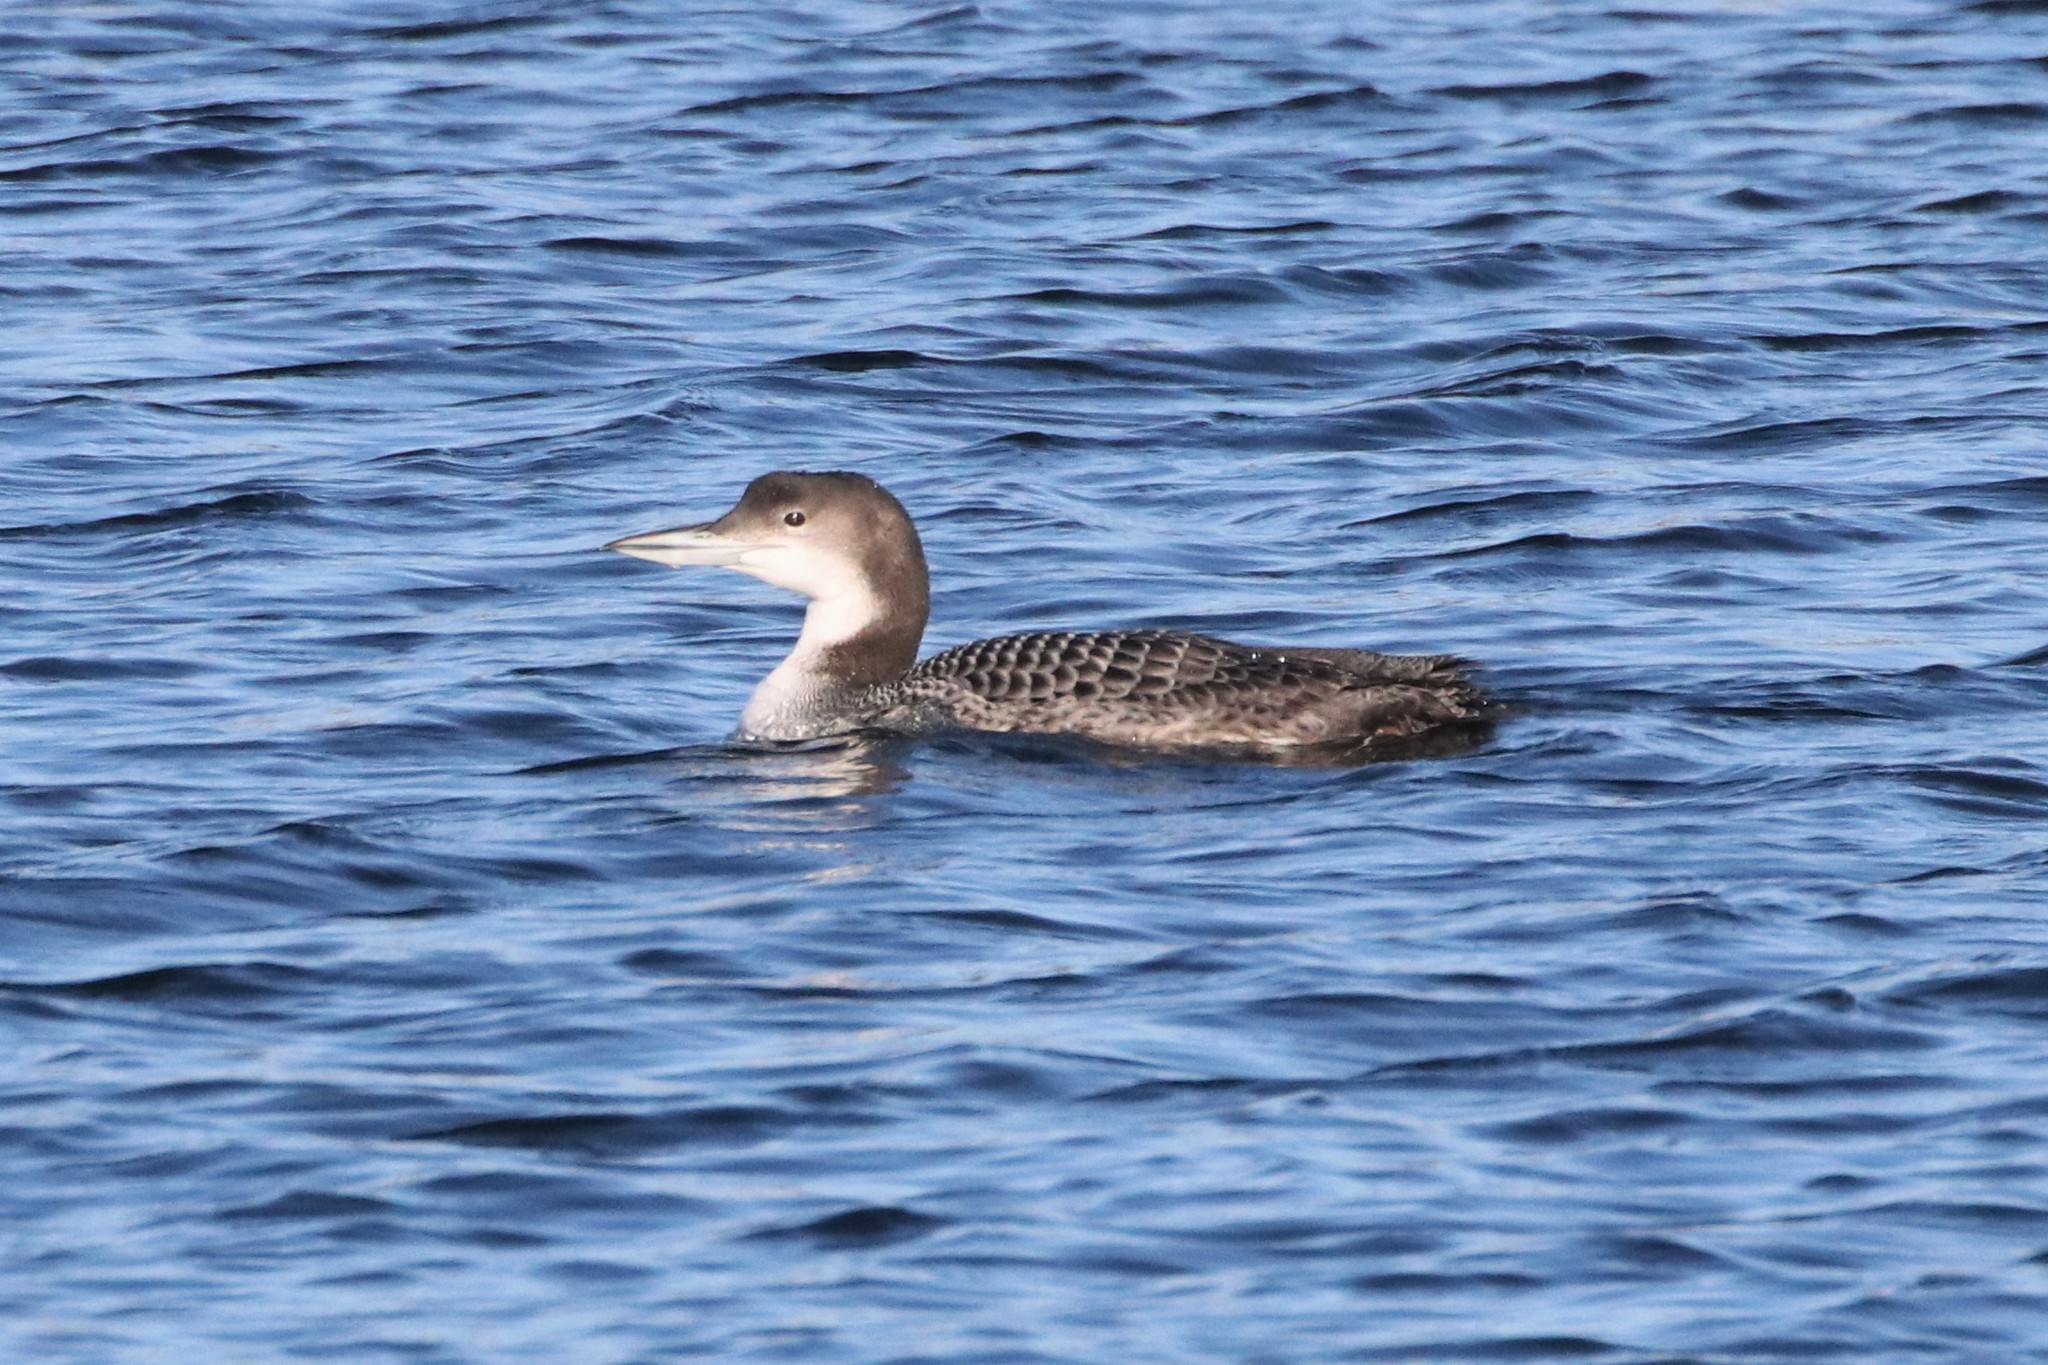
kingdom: Animalia
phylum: Chordata
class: Aves
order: Gaviiformes
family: Gaviidae
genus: Gavia
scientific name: Gavia immer
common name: Common loon
